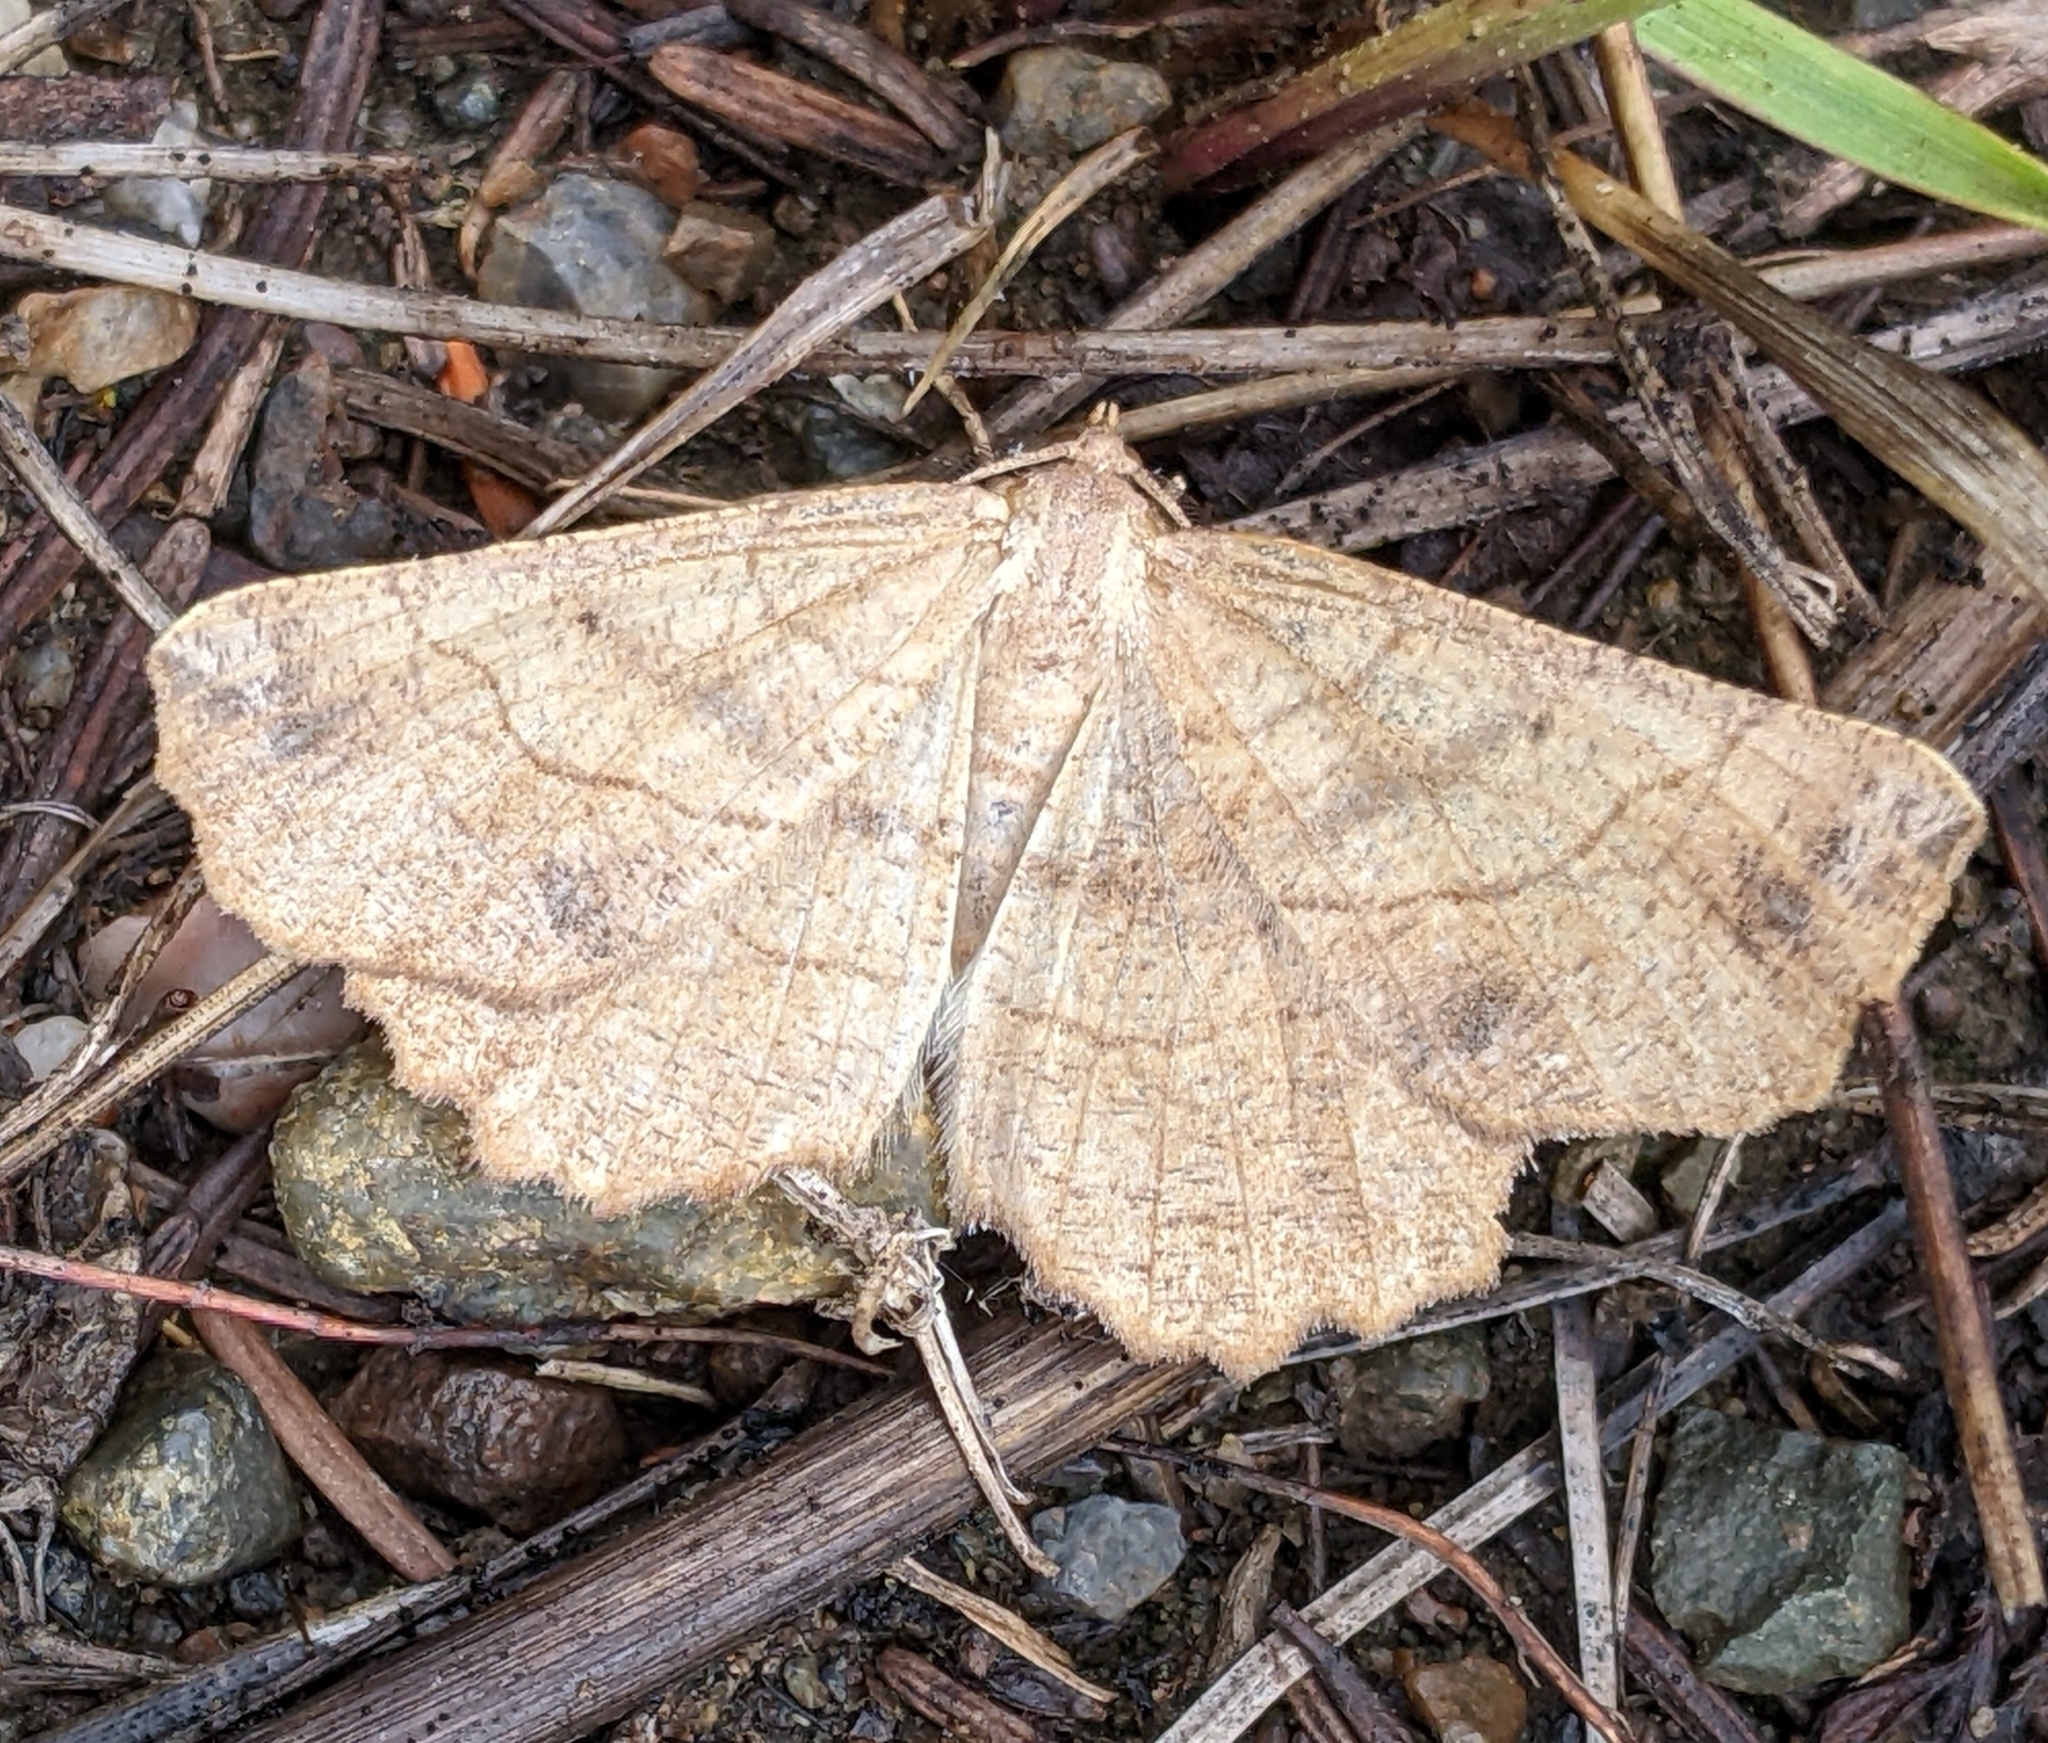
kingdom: Animalia
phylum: Arthropoda
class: Insecta
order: Lepidoptera
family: Geometridae
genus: Euchlaena
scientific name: Euchlaena mollisaria
